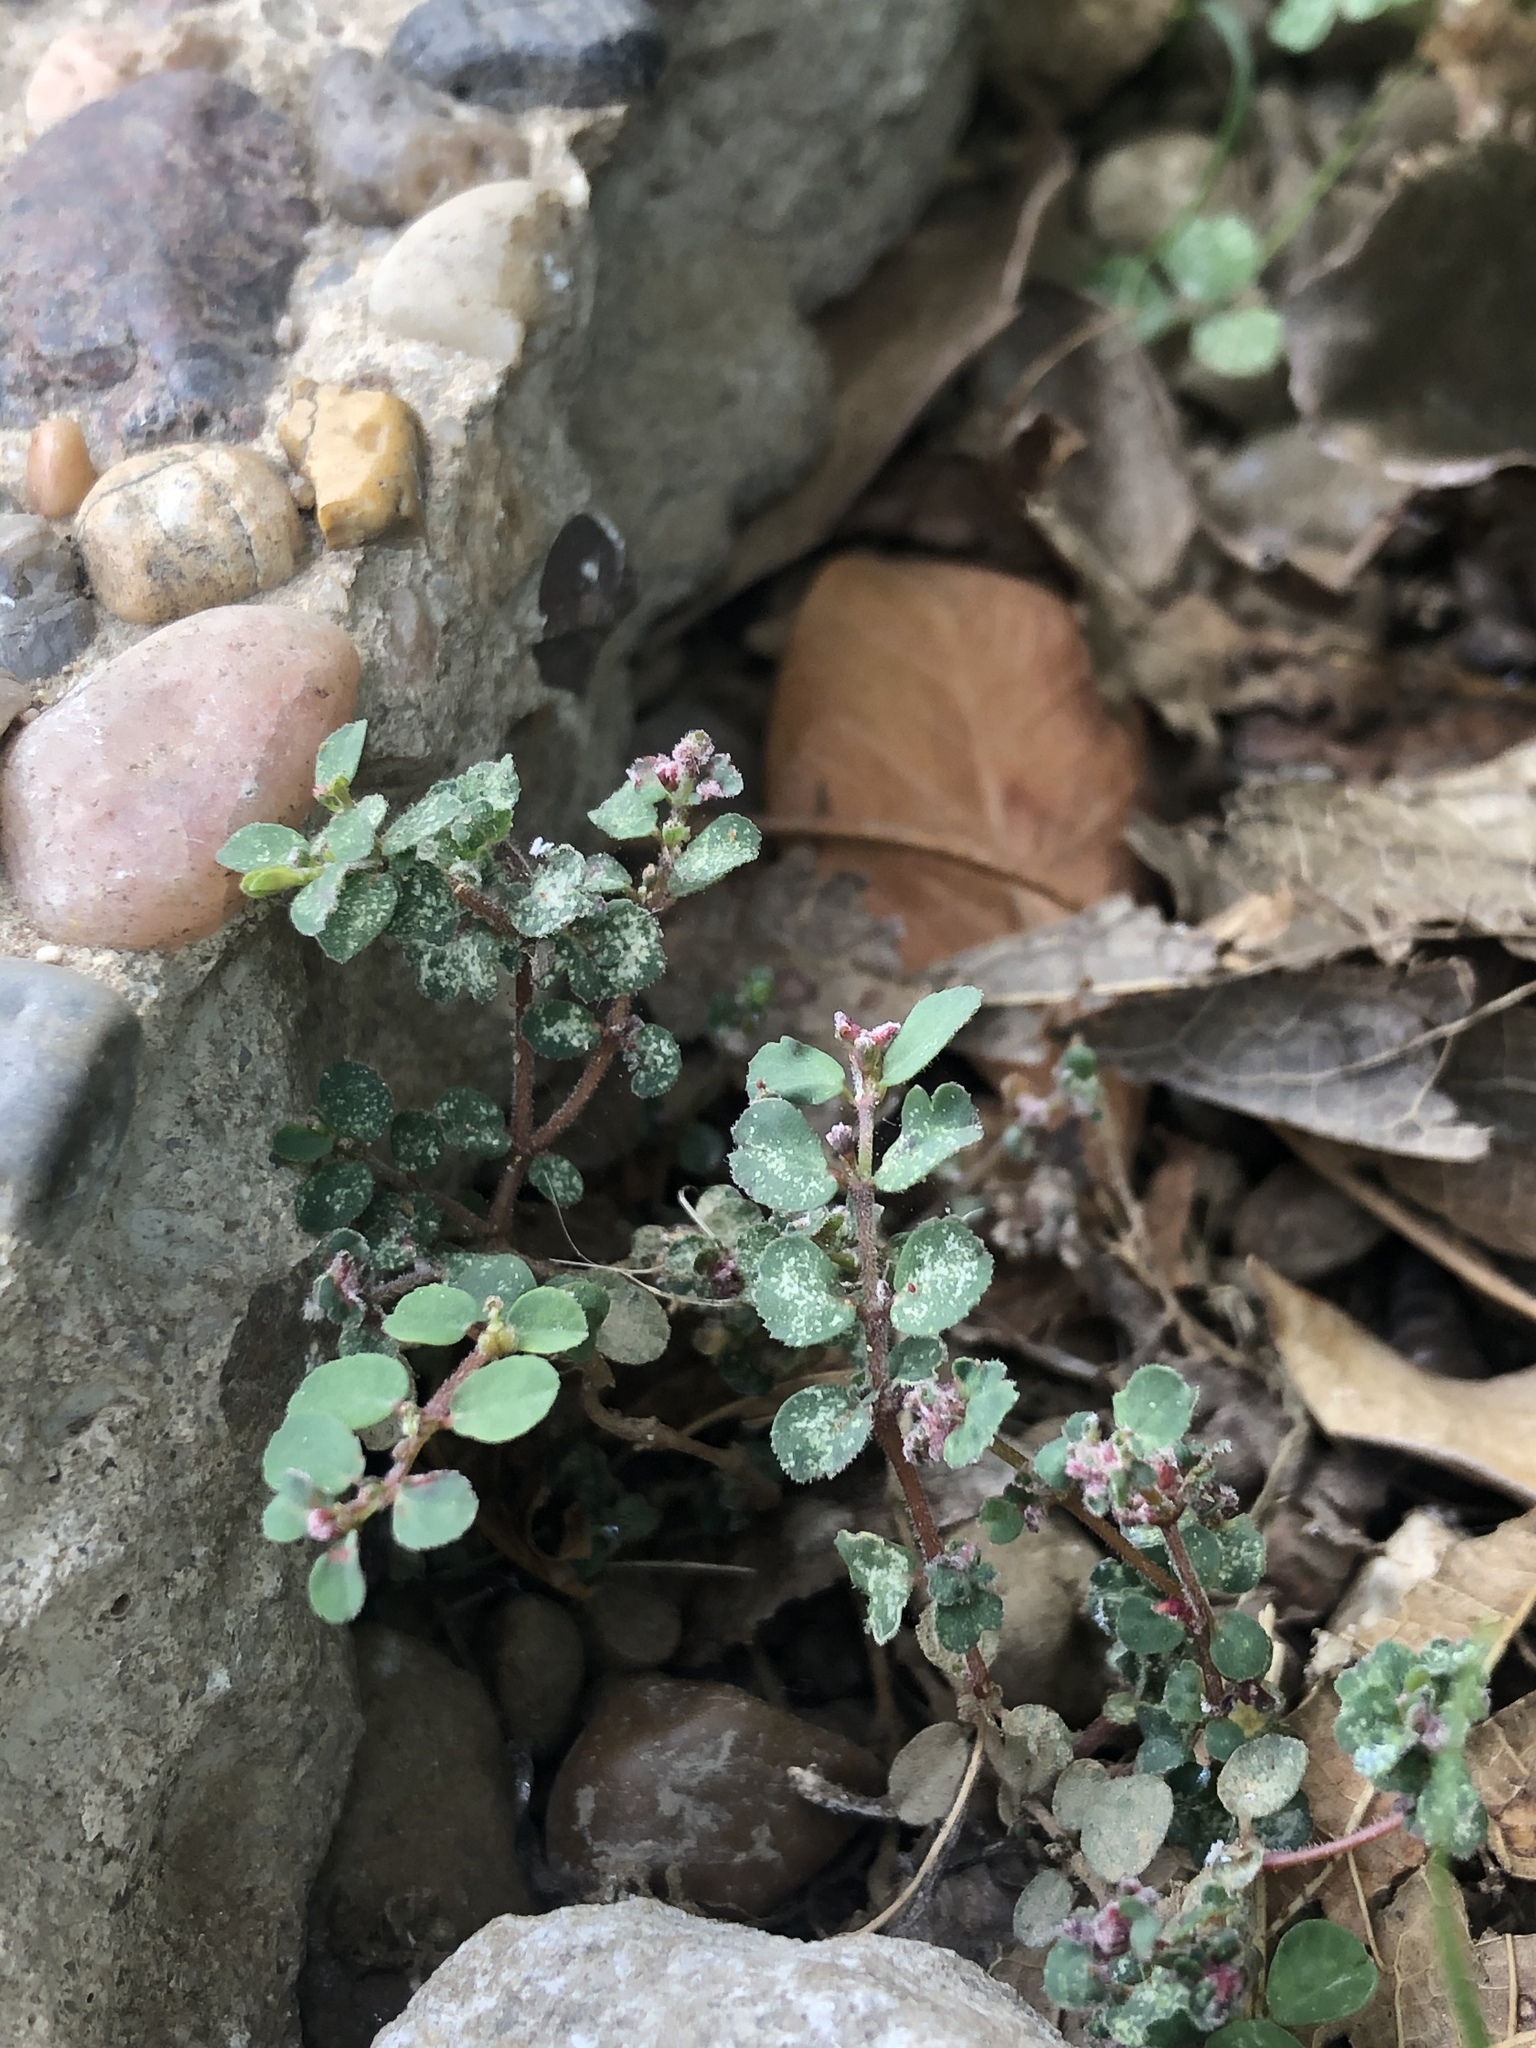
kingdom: Plantae
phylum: Tracheophyta
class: Magnoliopsida
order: Malpighiales
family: Euphorbiaceae
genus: Euphorbia
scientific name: Euphorbia prostrata
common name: Prostrate sandmat
